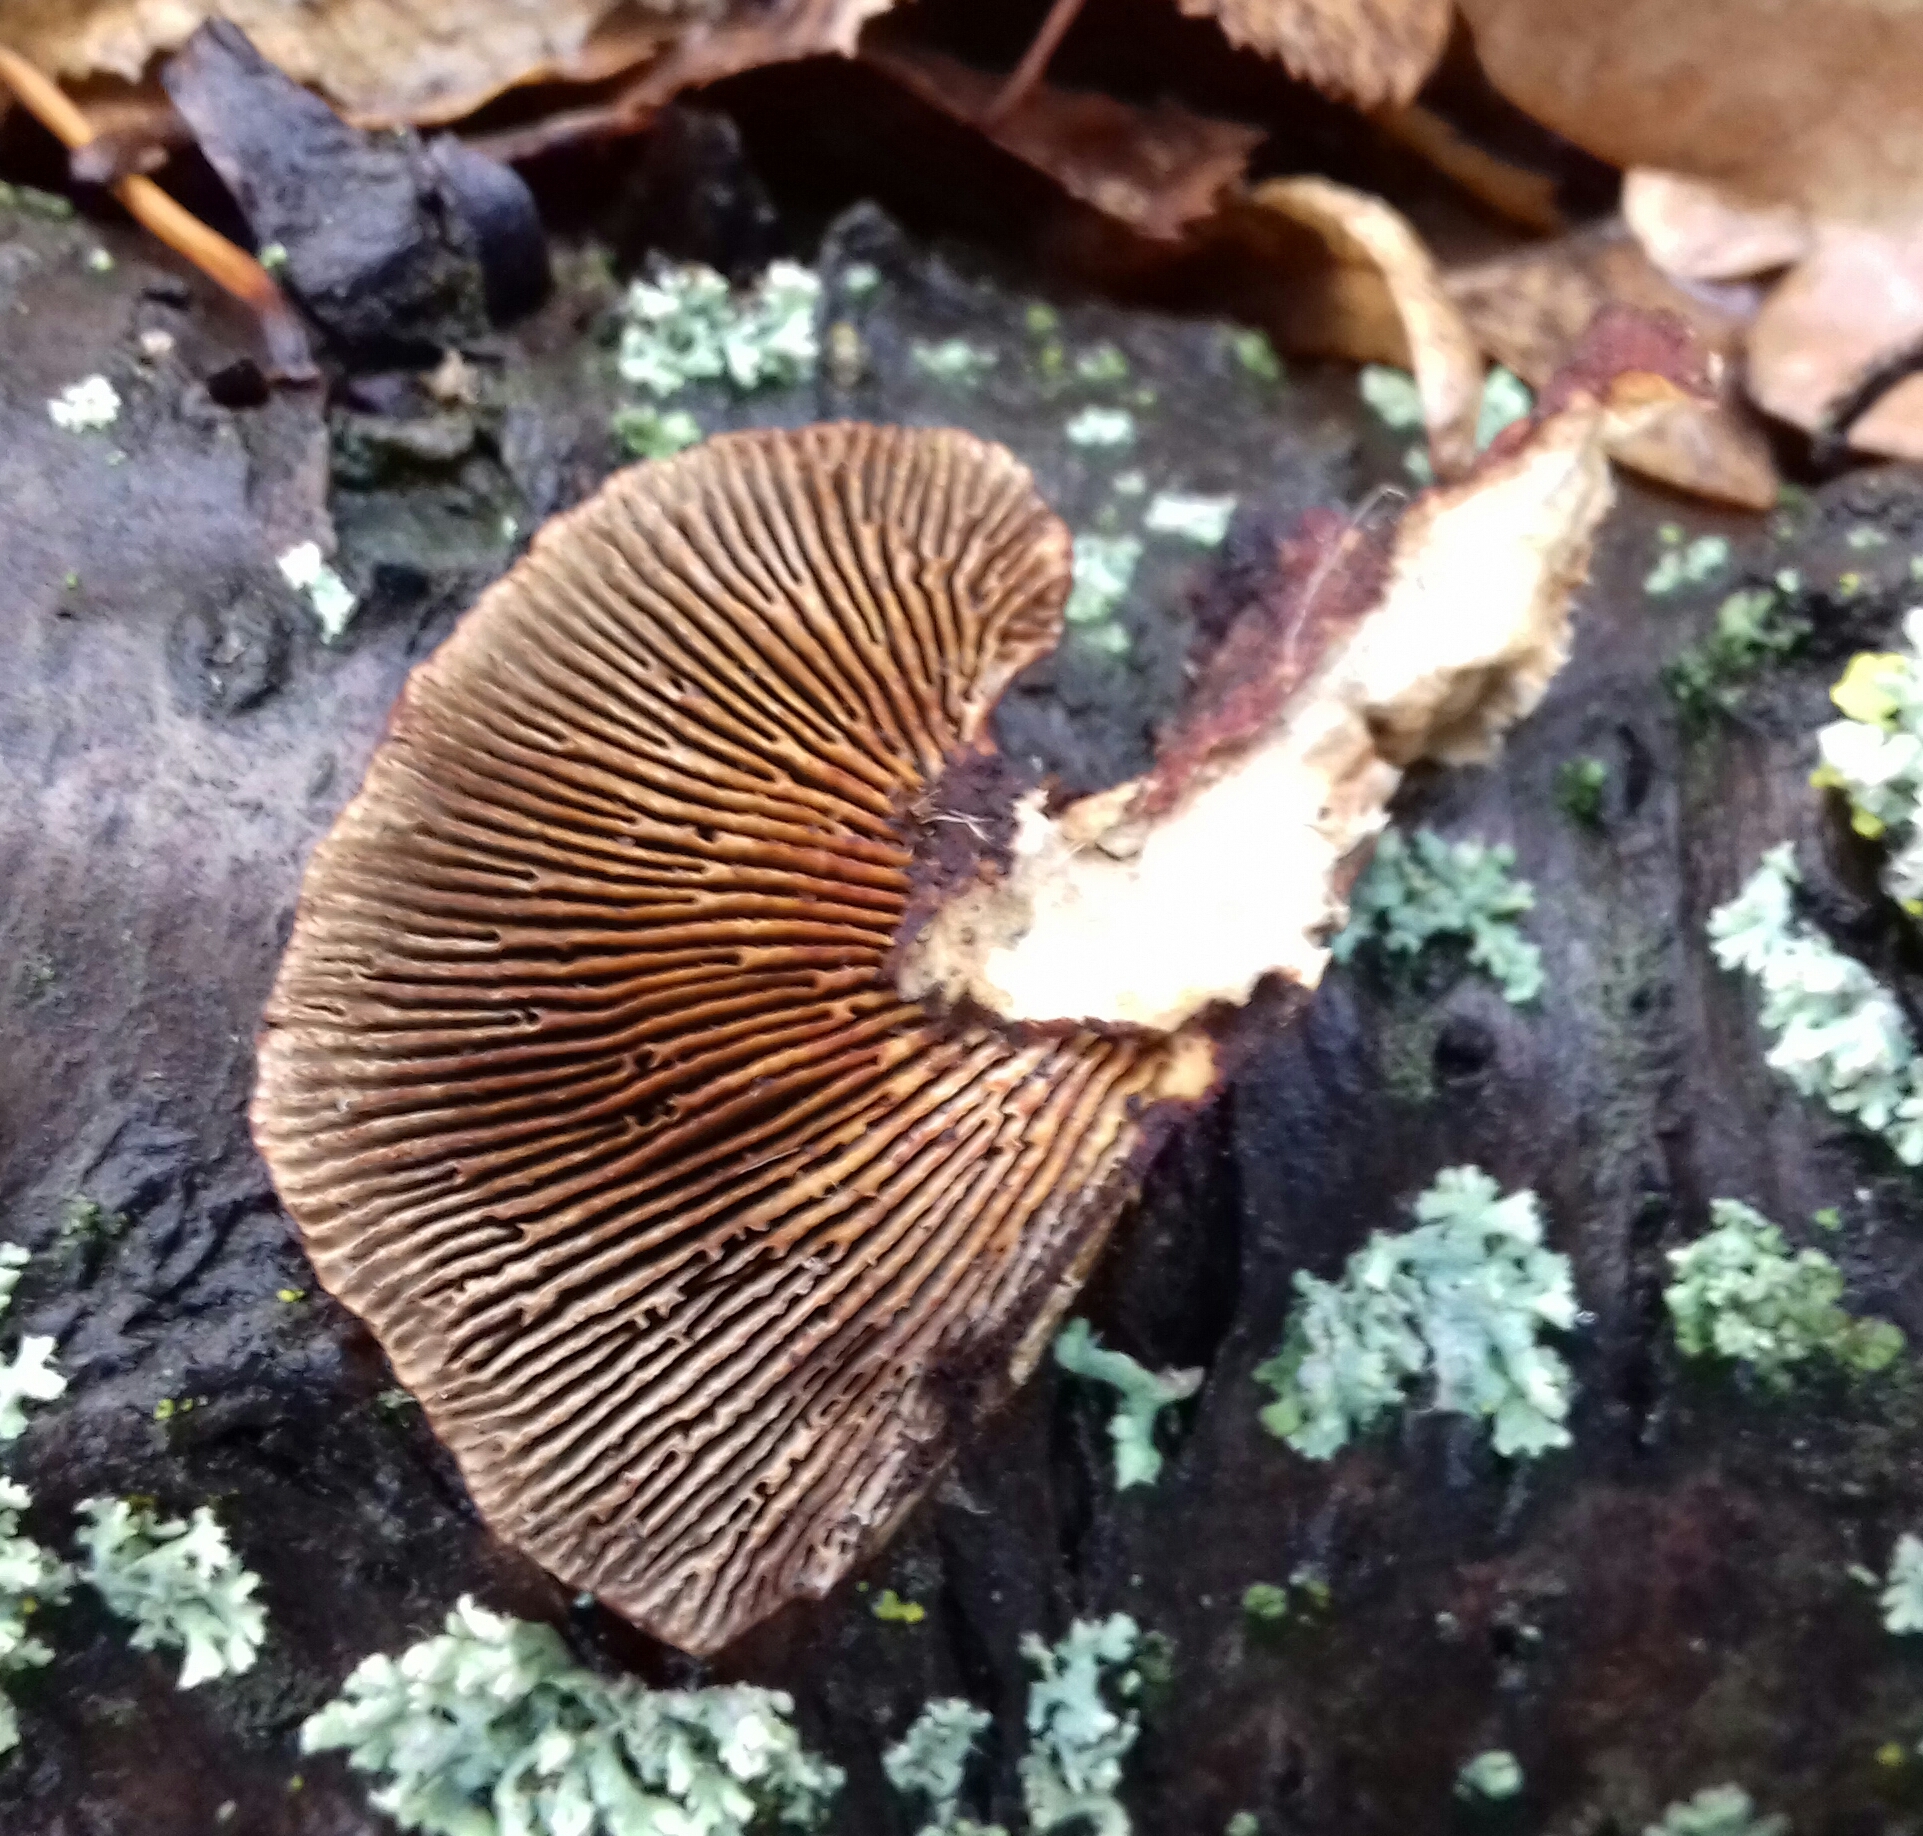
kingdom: Fungi
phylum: Basidiomycota
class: Agaricomycetes
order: Polyporales
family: Polyporaceae
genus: Daedaleopsis
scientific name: Daedaleopsis tricolor
